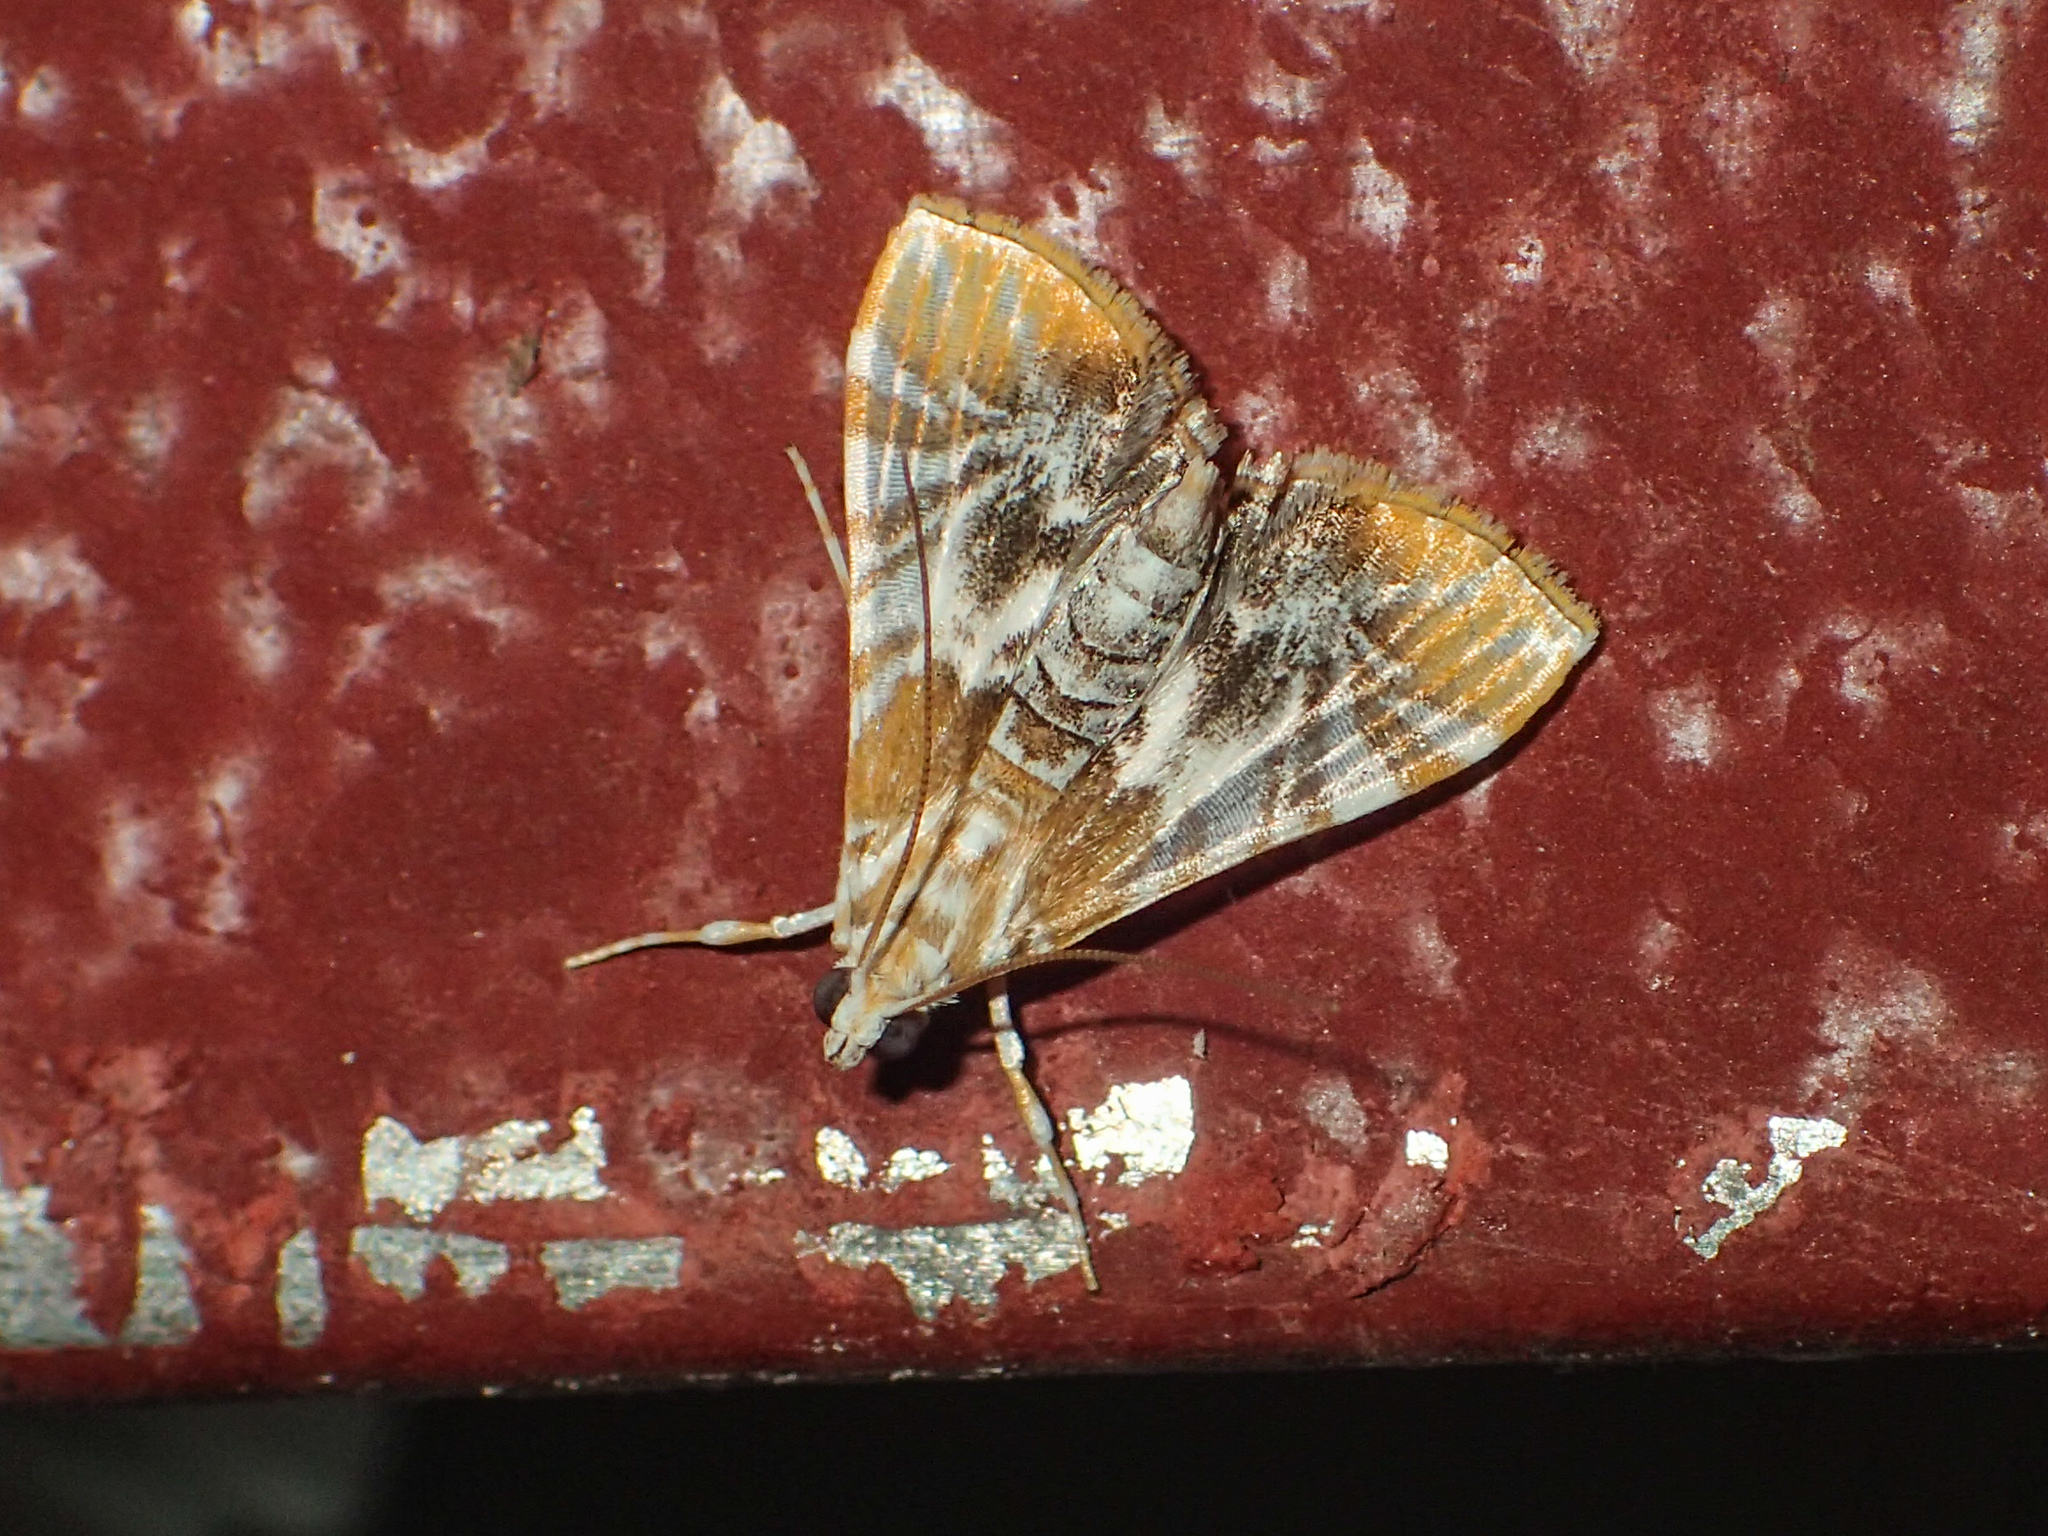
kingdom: Animalia
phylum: Arthropoda
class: Insecta
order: Lepidoptera
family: Crambidae
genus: Macaretaera
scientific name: Macaretaera hesperis
